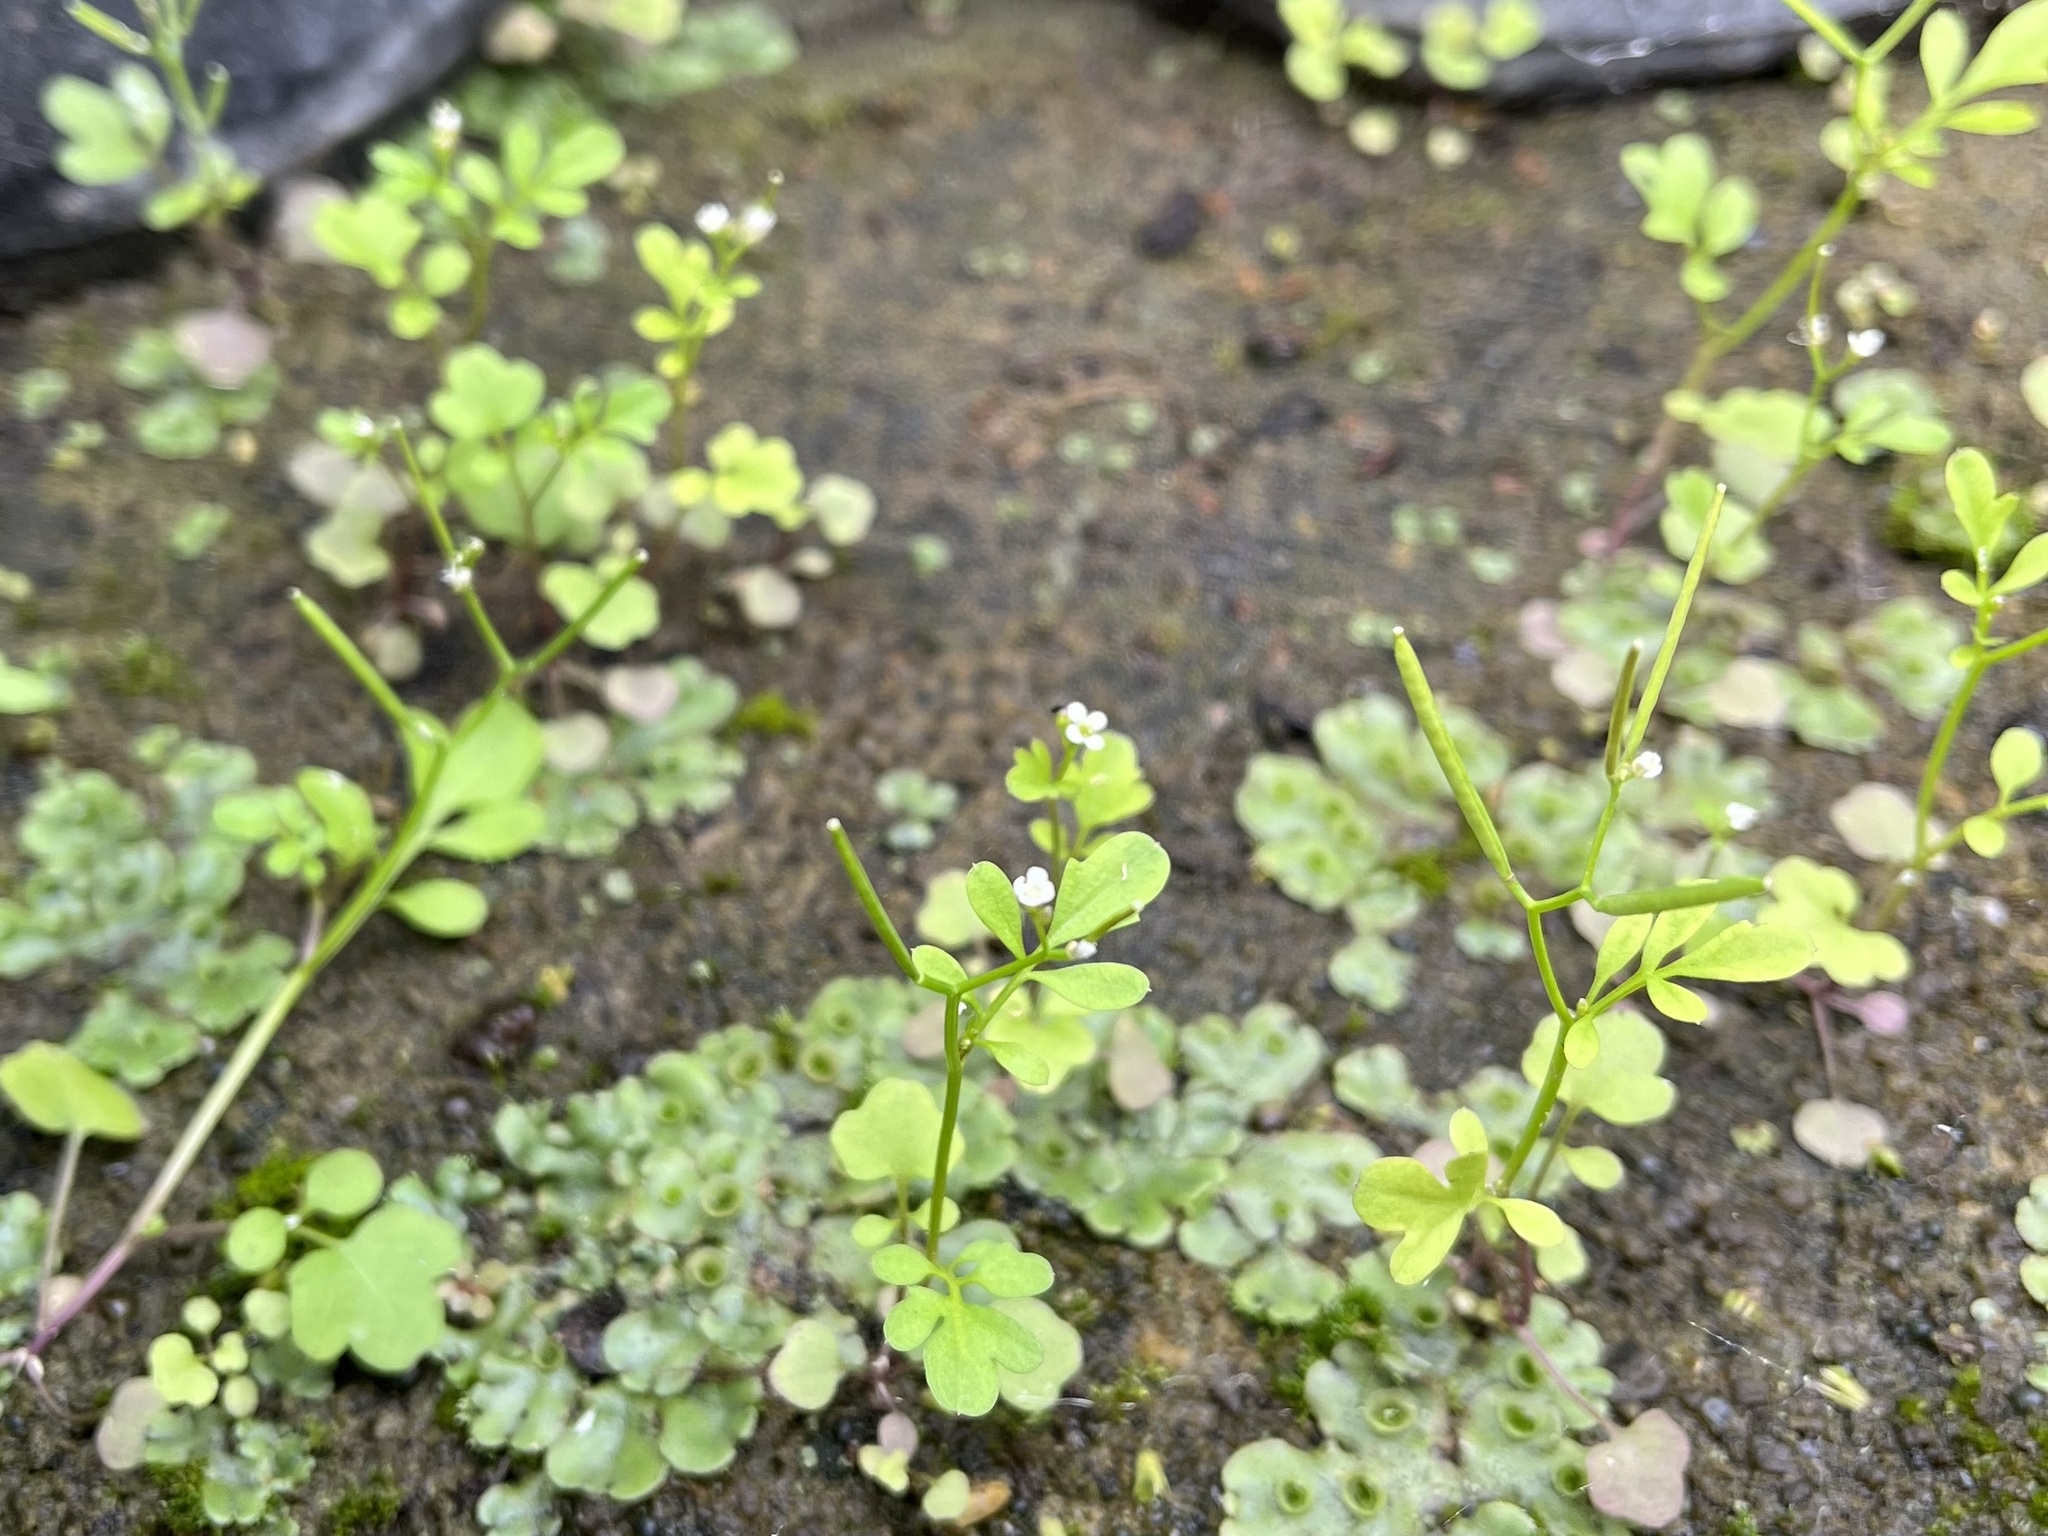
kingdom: Plantae
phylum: Tracheophyta
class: Magnoliopsida
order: Brassicales
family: Brassicaceae
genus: Cardamine
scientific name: Cardamine occulta
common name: Asian wavy bittercress
